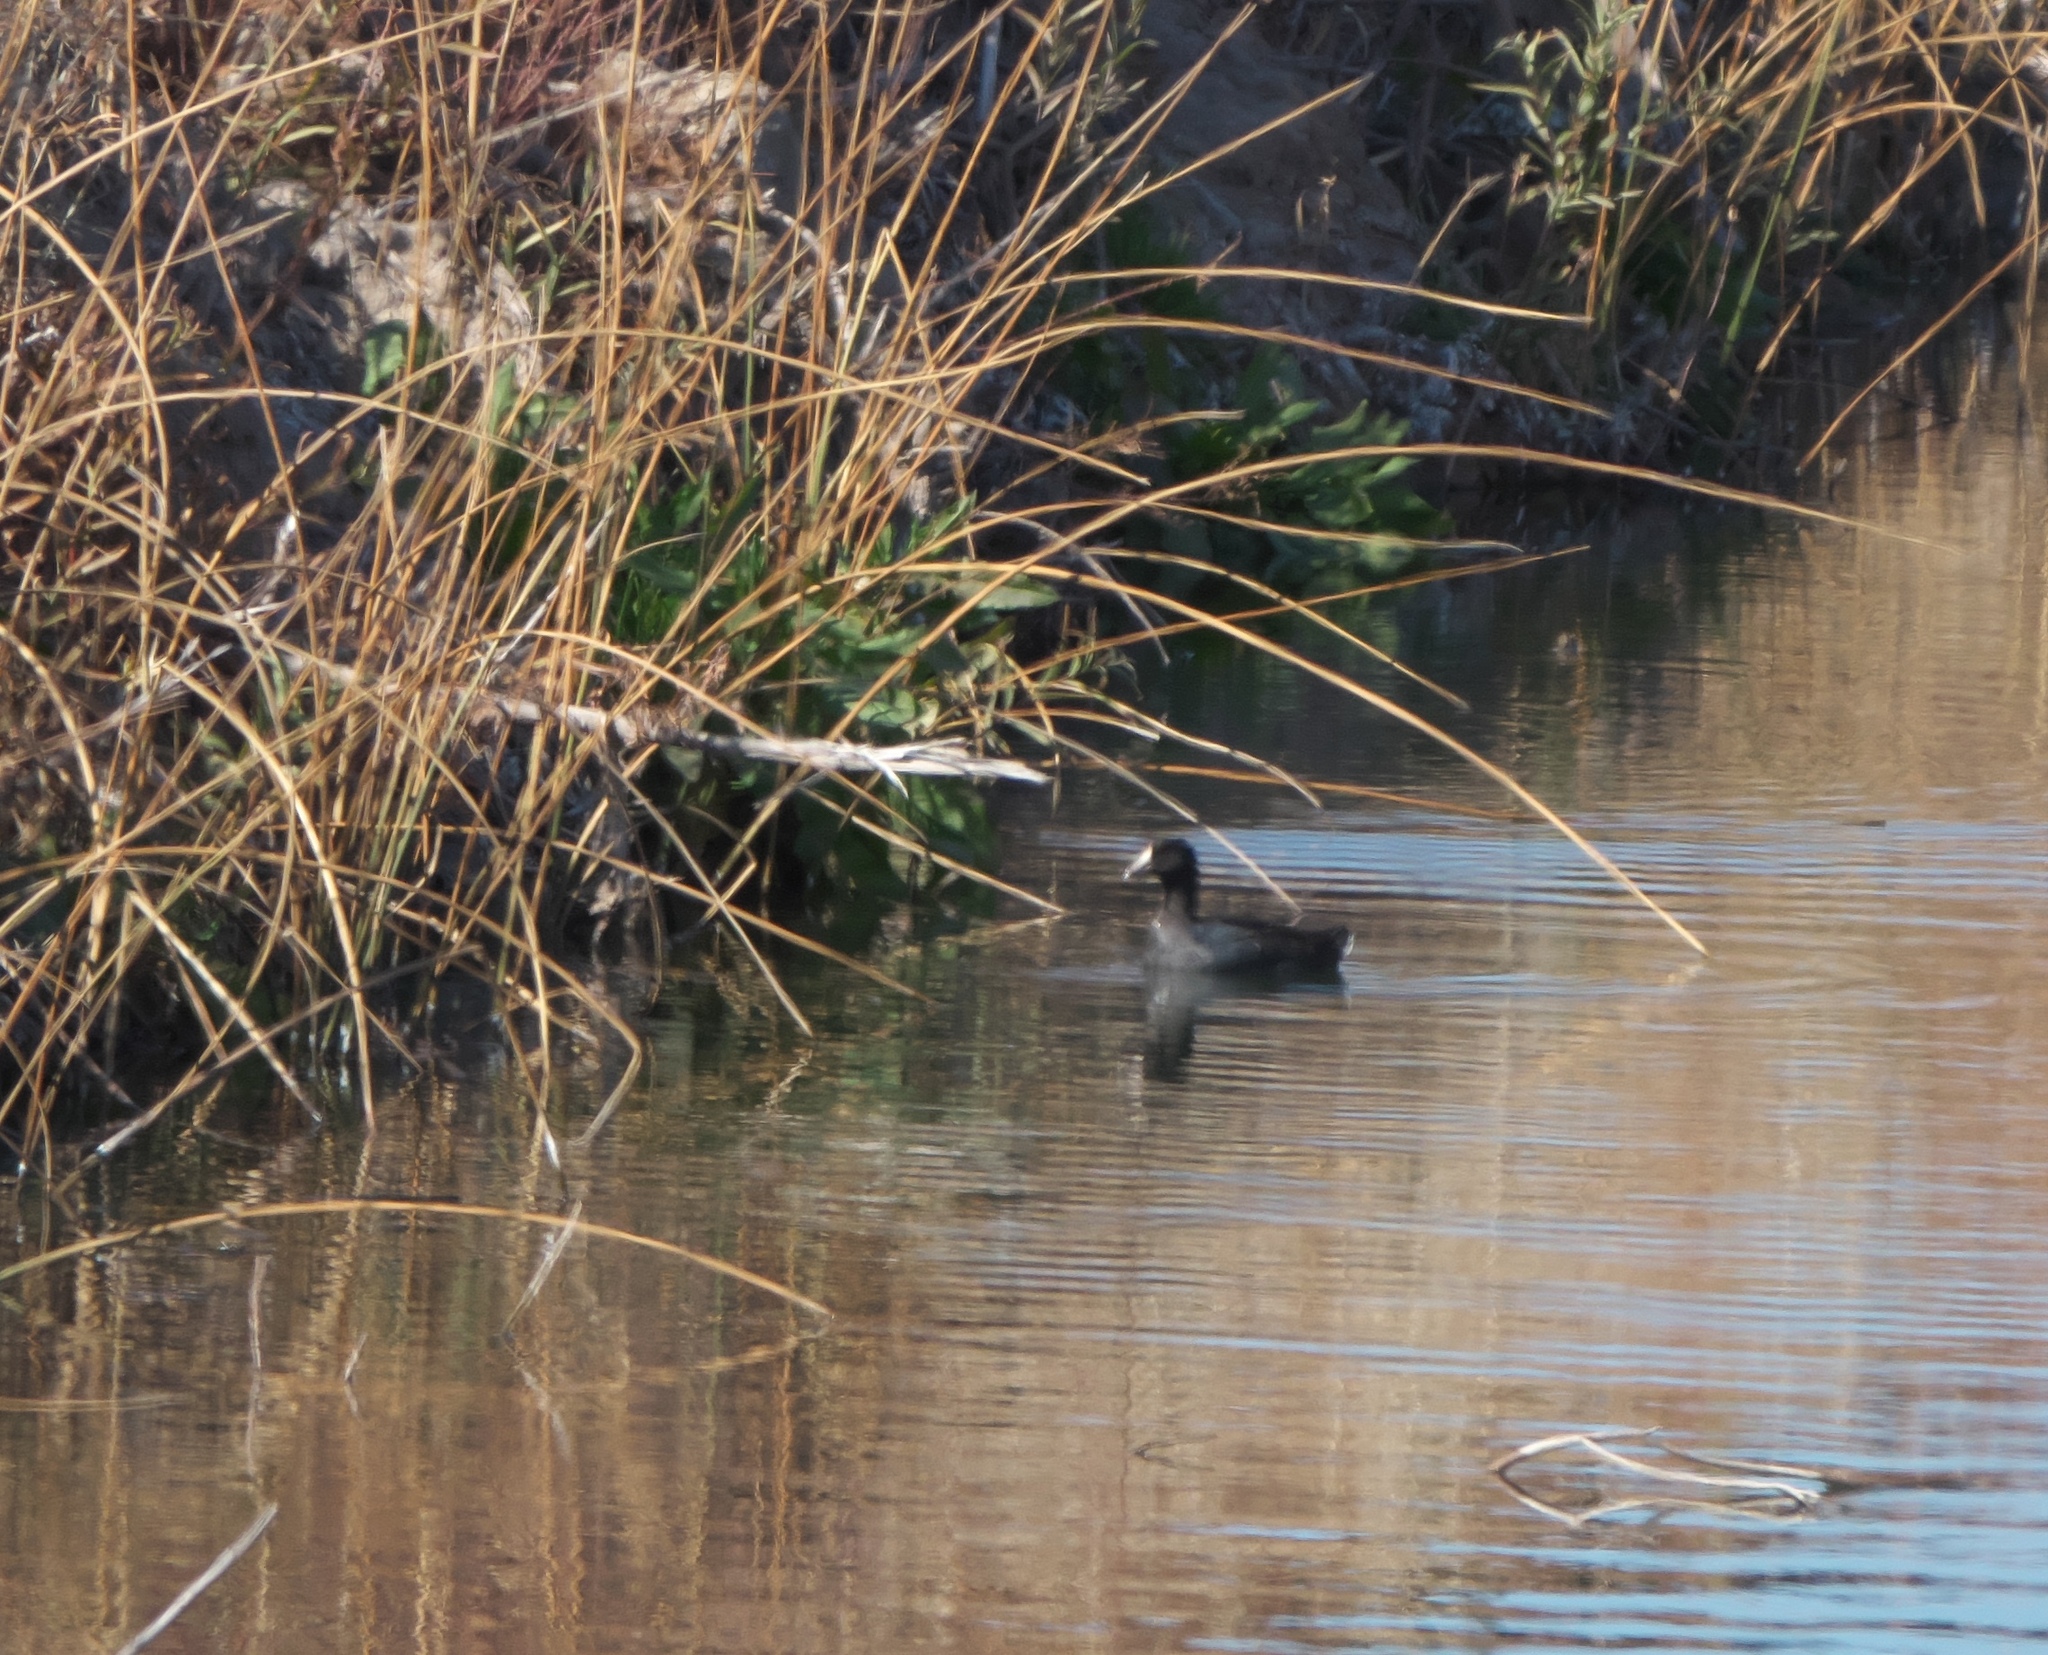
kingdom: Animalia
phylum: Chordata
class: Aves
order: Gruiformes
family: Rallidae
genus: Fulica
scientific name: Fulica americana
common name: American coot
